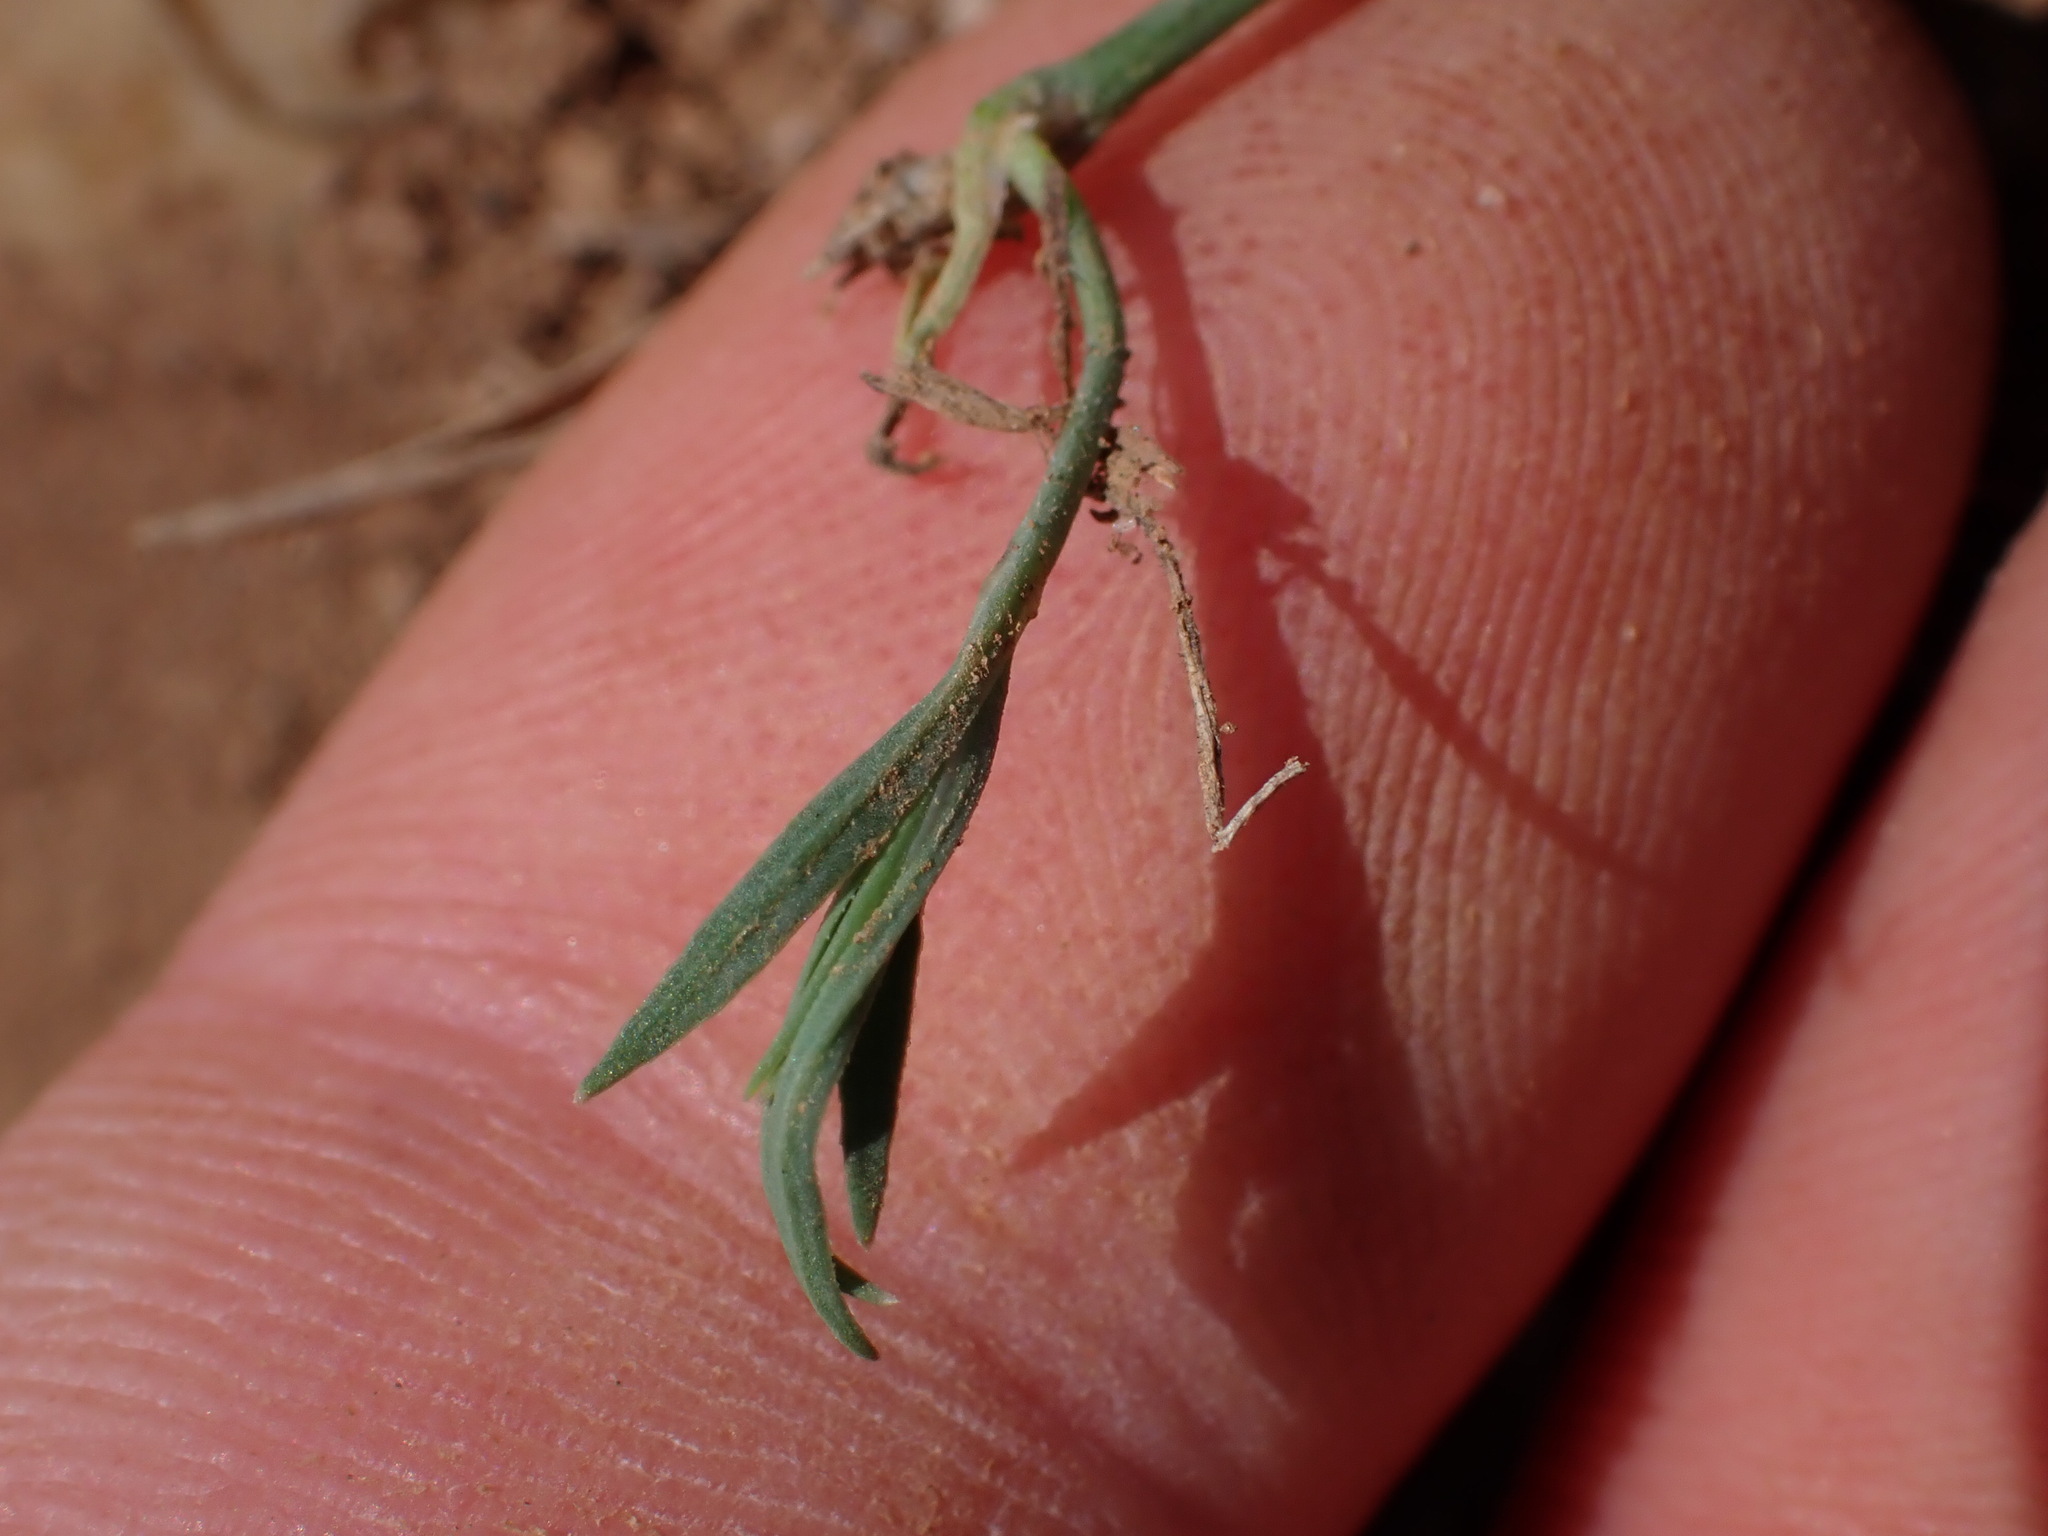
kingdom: Plantae
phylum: Tracheophyta
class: Magnoliopsida
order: Caryophyllales
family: Caryophyllaceae
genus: Petrorhagia
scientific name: Petrorhagia saxifraga
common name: Tunicflower
